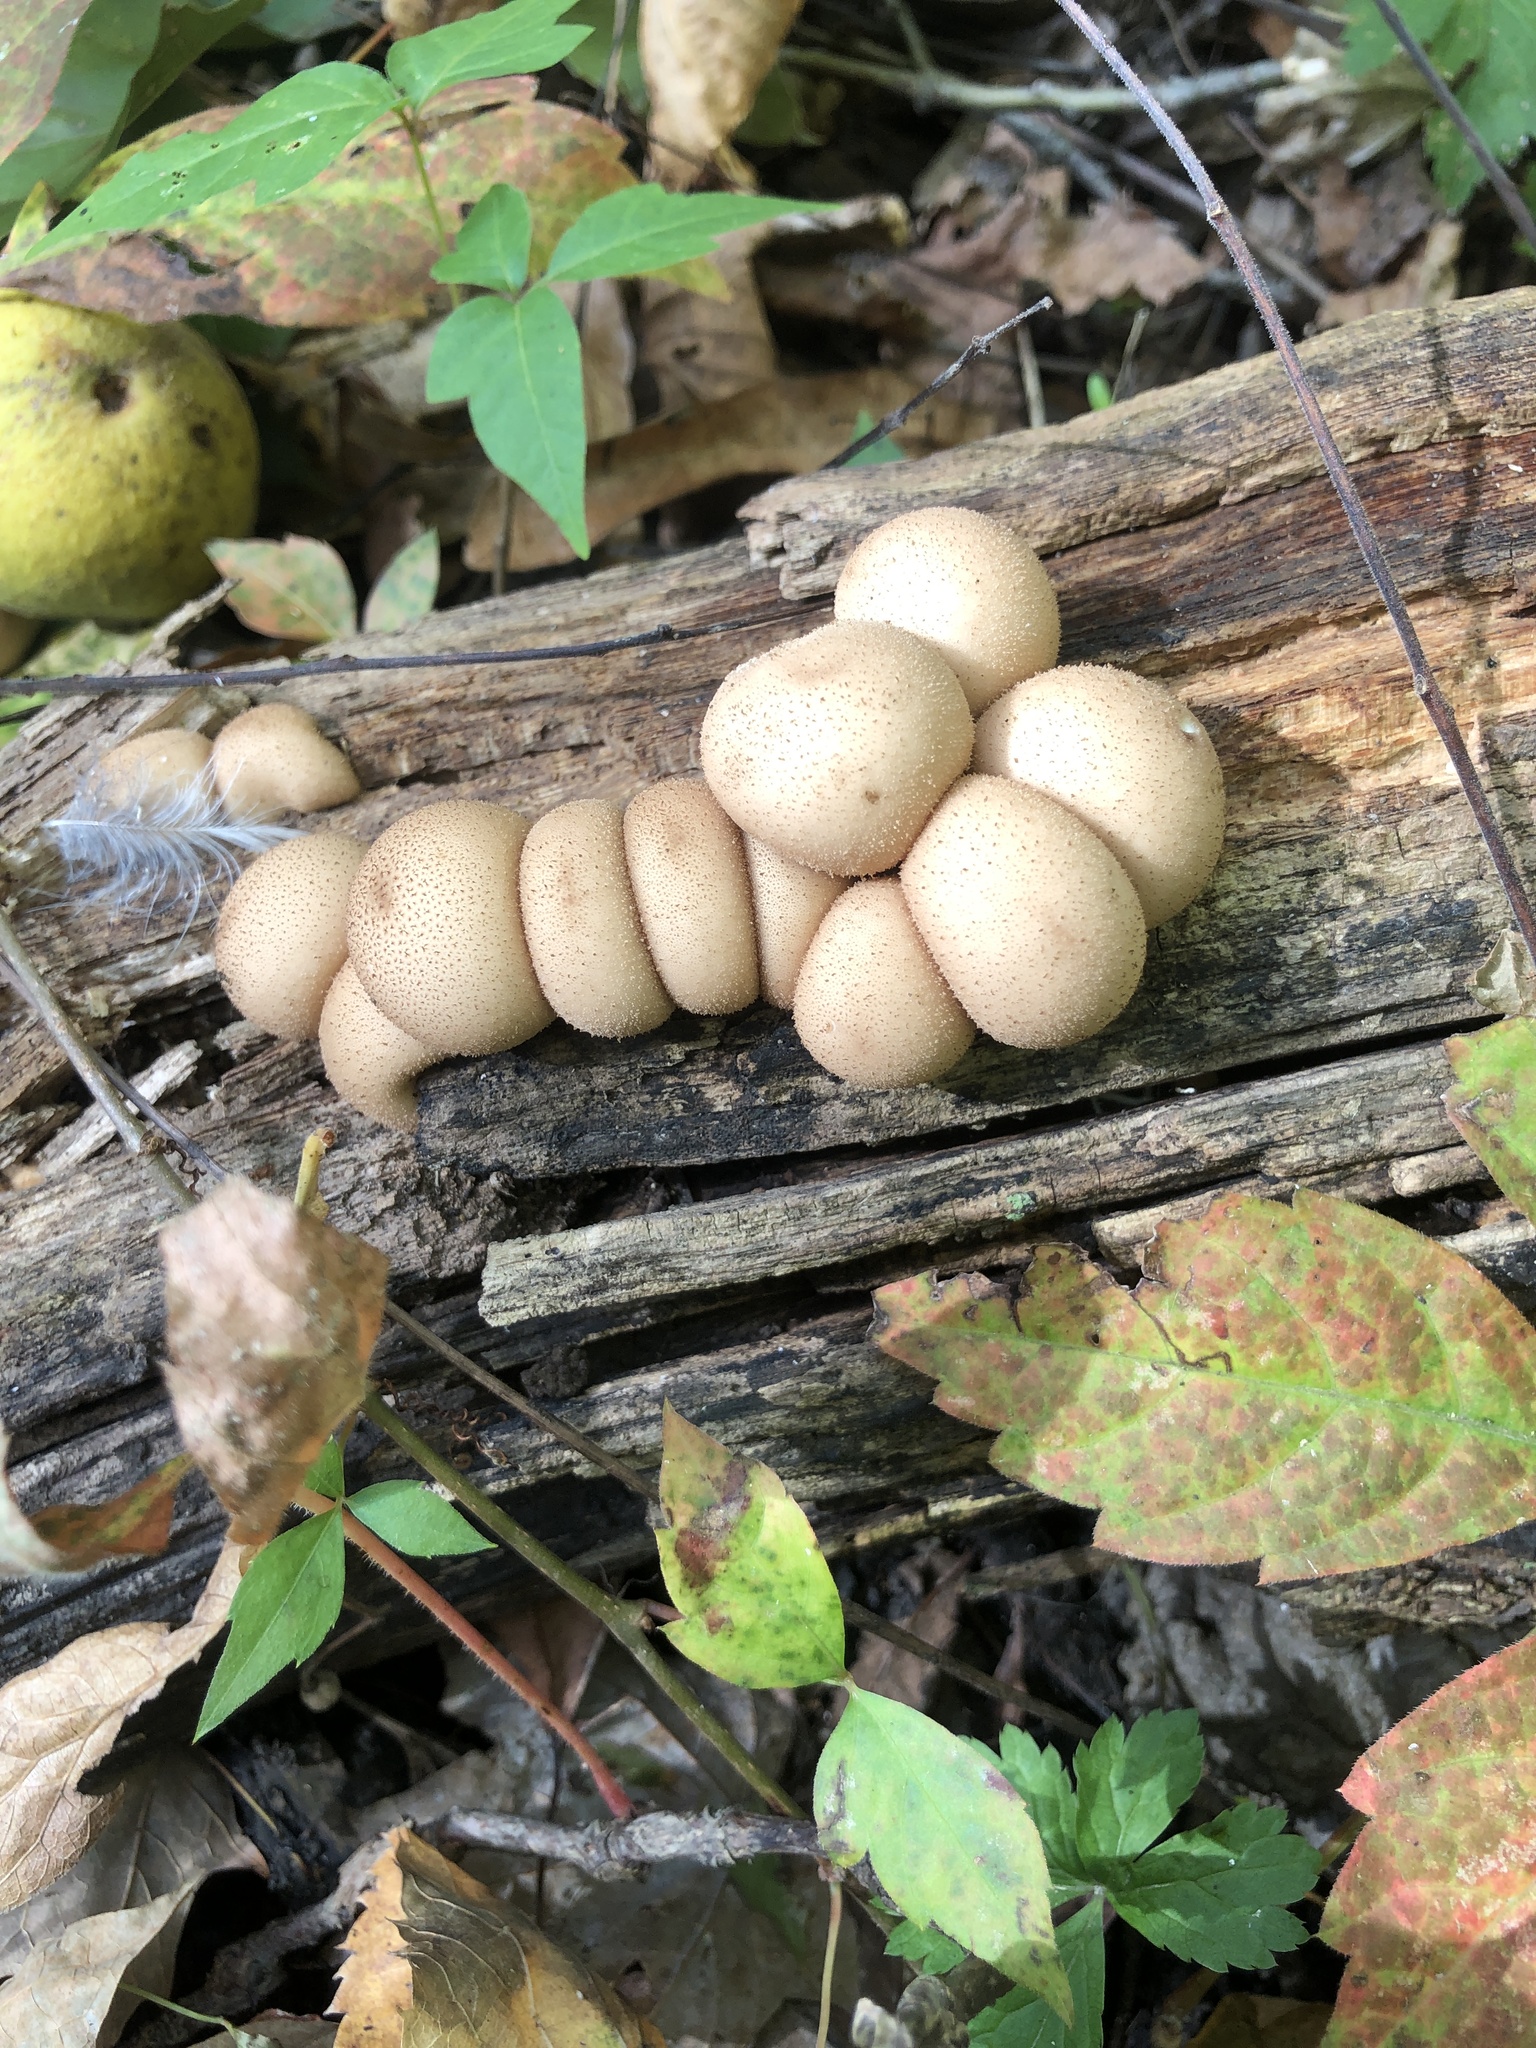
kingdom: Fungi
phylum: Basidiomycota
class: Agaricomycetes
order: Agaricales
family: Lycoperdaceae
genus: Apioperdon
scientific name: Apioperdon pyriforme
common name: Pear-shaped puffball
